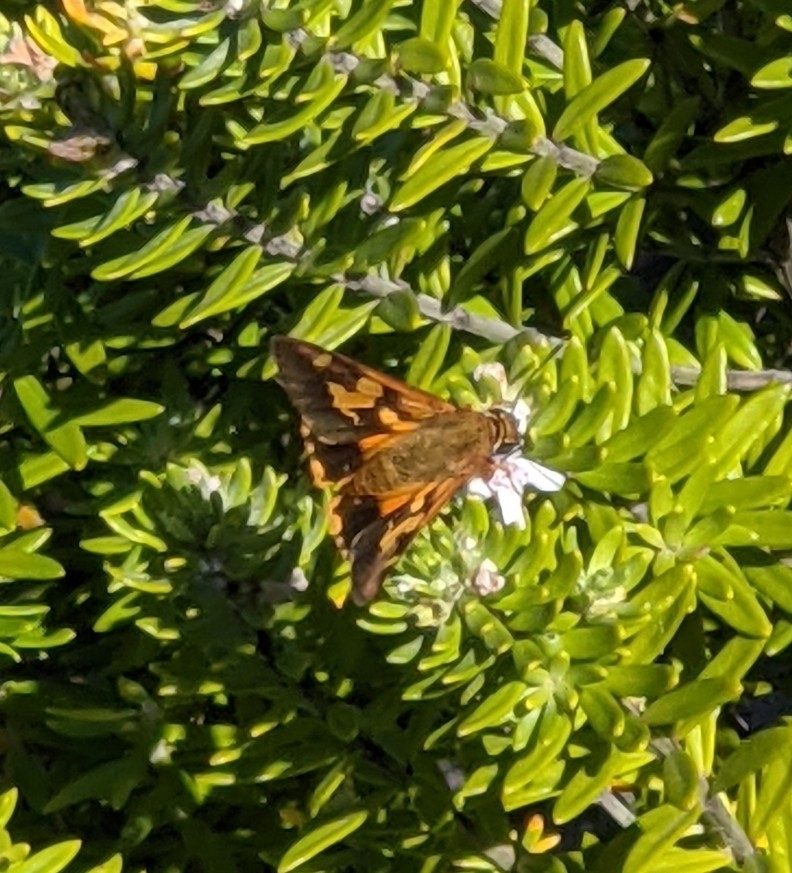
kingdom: Animalia
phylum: Arthropoda
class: Insecta
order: Lepidoptera
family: Hesperiidae
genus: Trapezites
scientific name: Trapezites symmomus
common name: Splendid ochre
